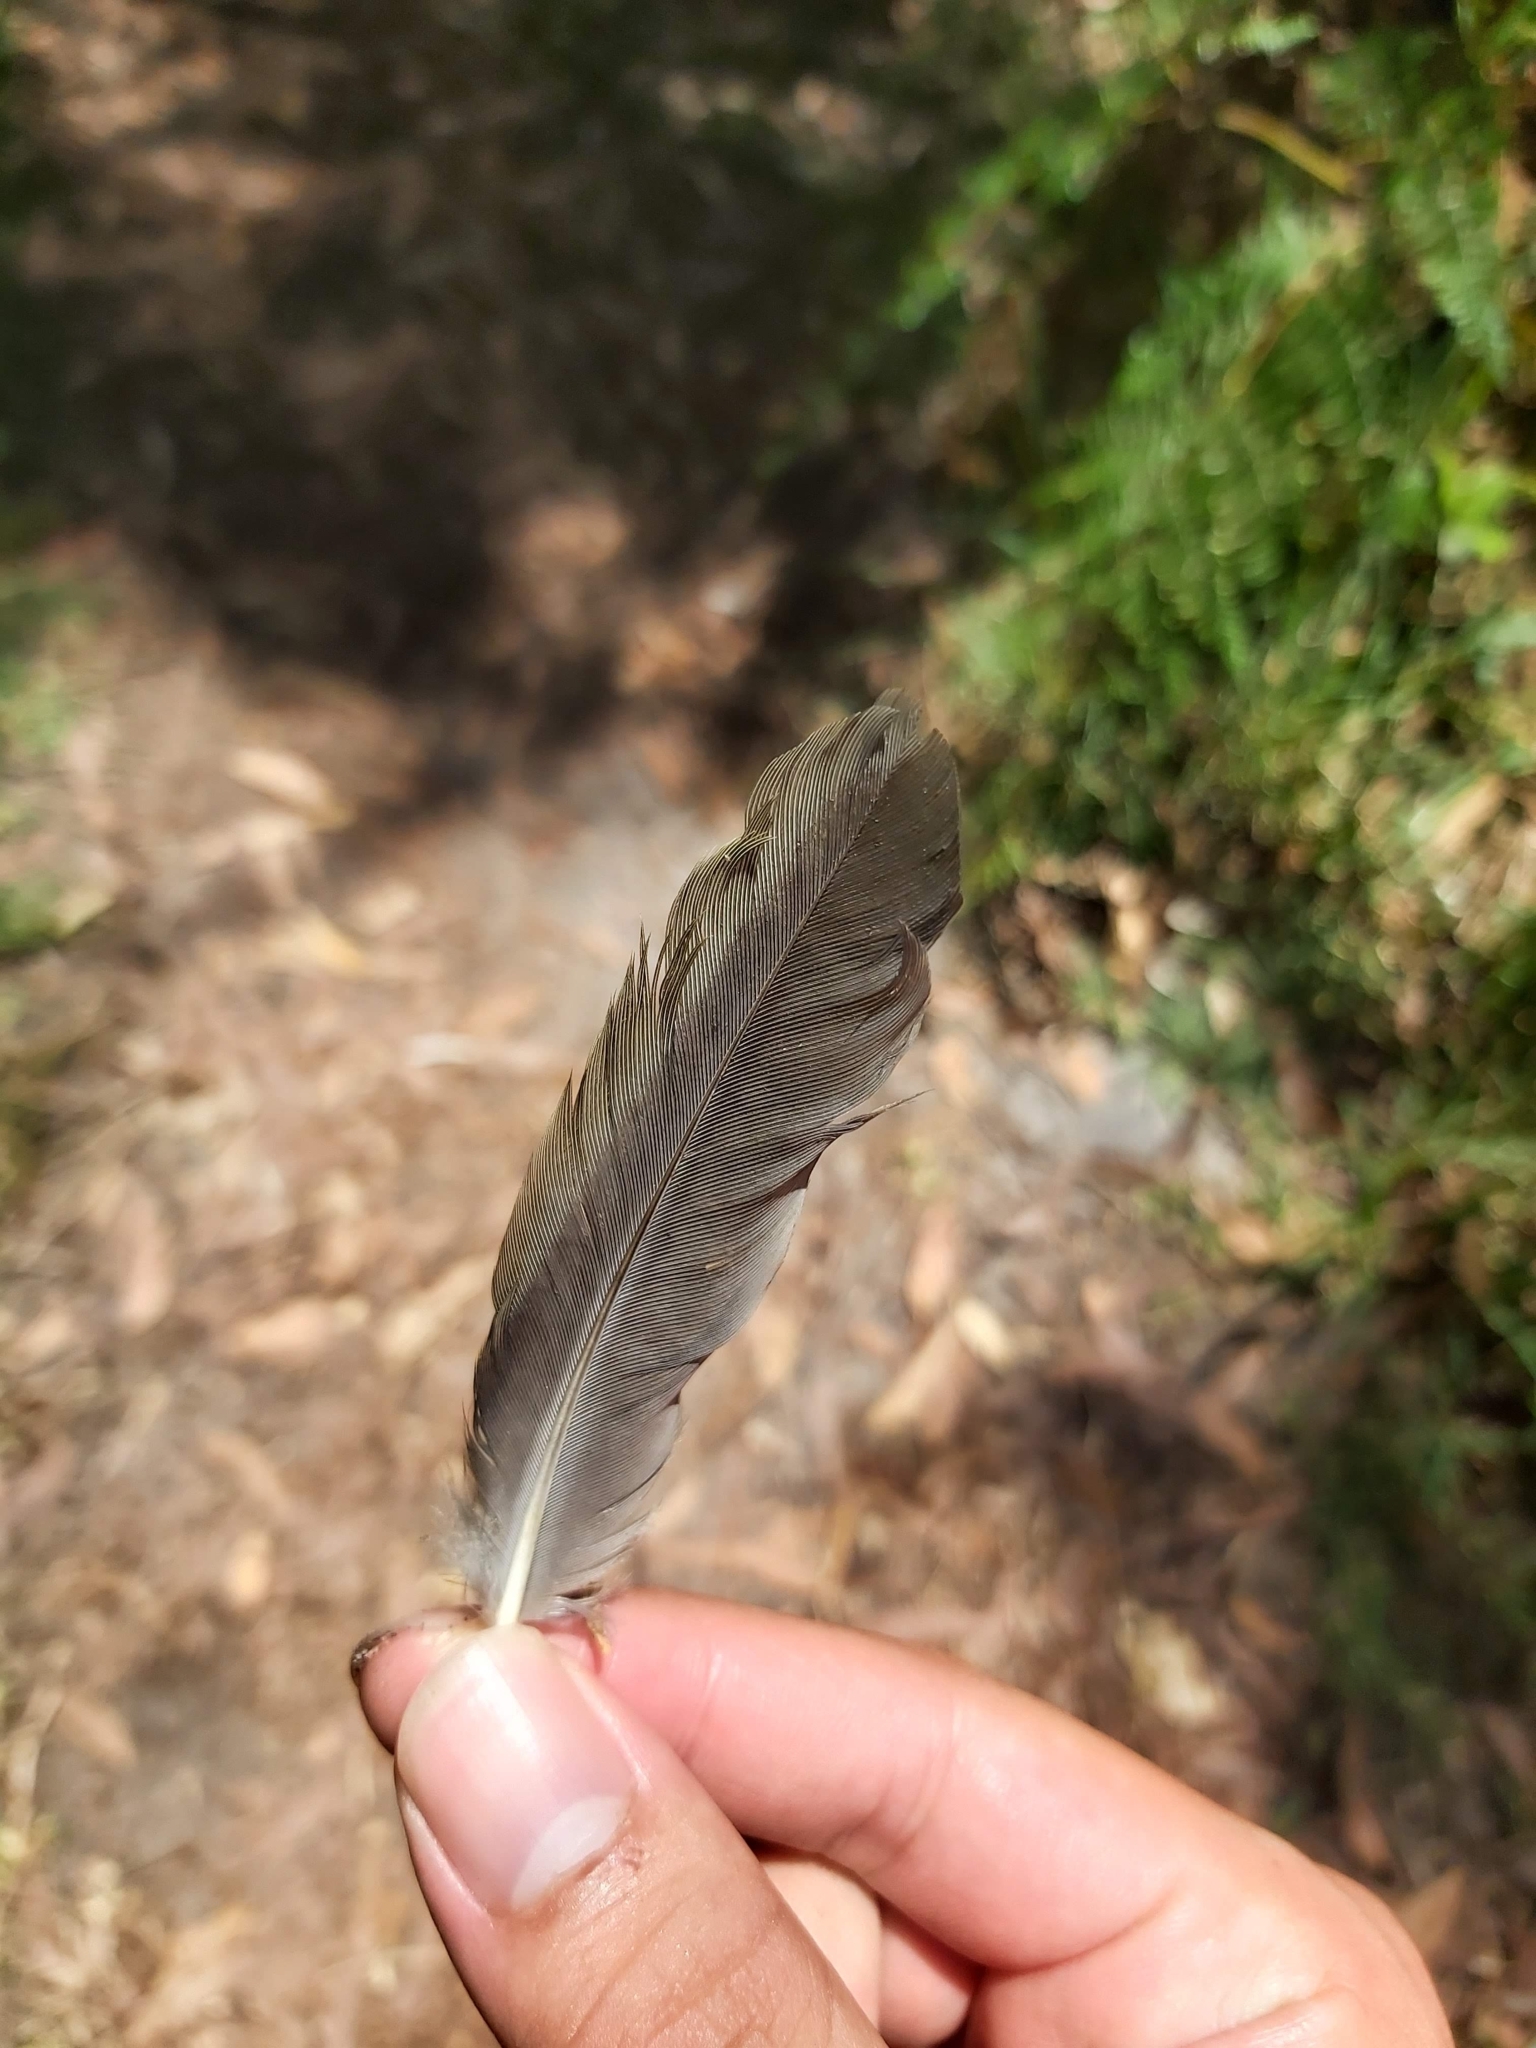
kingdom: Animalia
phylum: Chordata
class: Aves
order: Passeriformes
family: Meliphagidae
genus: Manorina
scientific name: Manorina melanocephala
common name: Noisy miner
